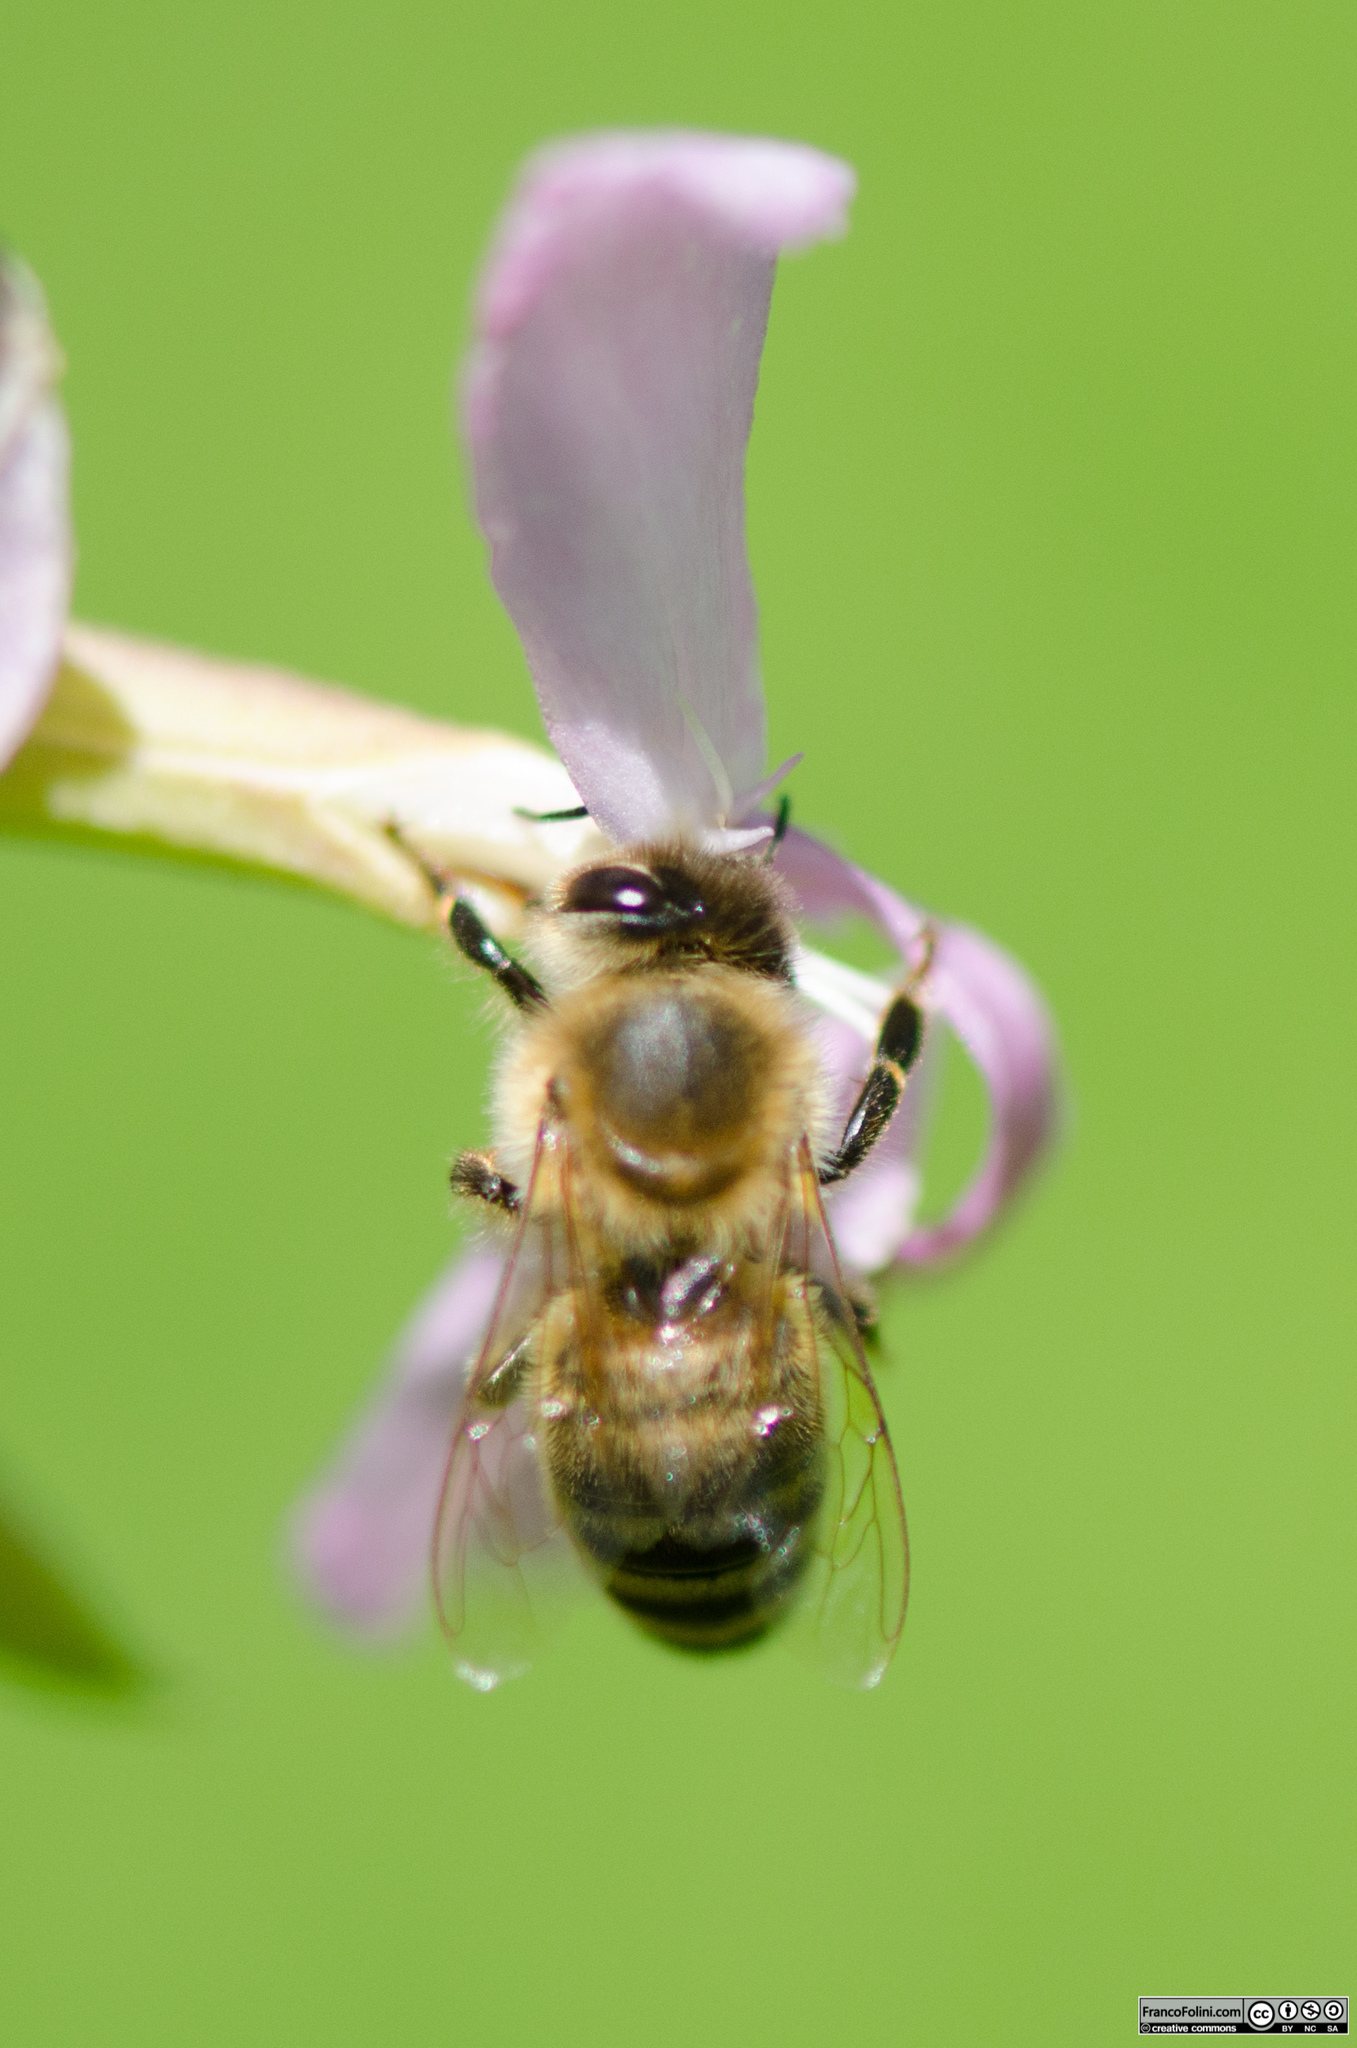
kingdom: Animalia
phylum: Arthropoda
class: Insecta
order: Hymenoptera
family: Apidae
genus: Apis
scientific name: Apis mellifera
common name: Honey bee
